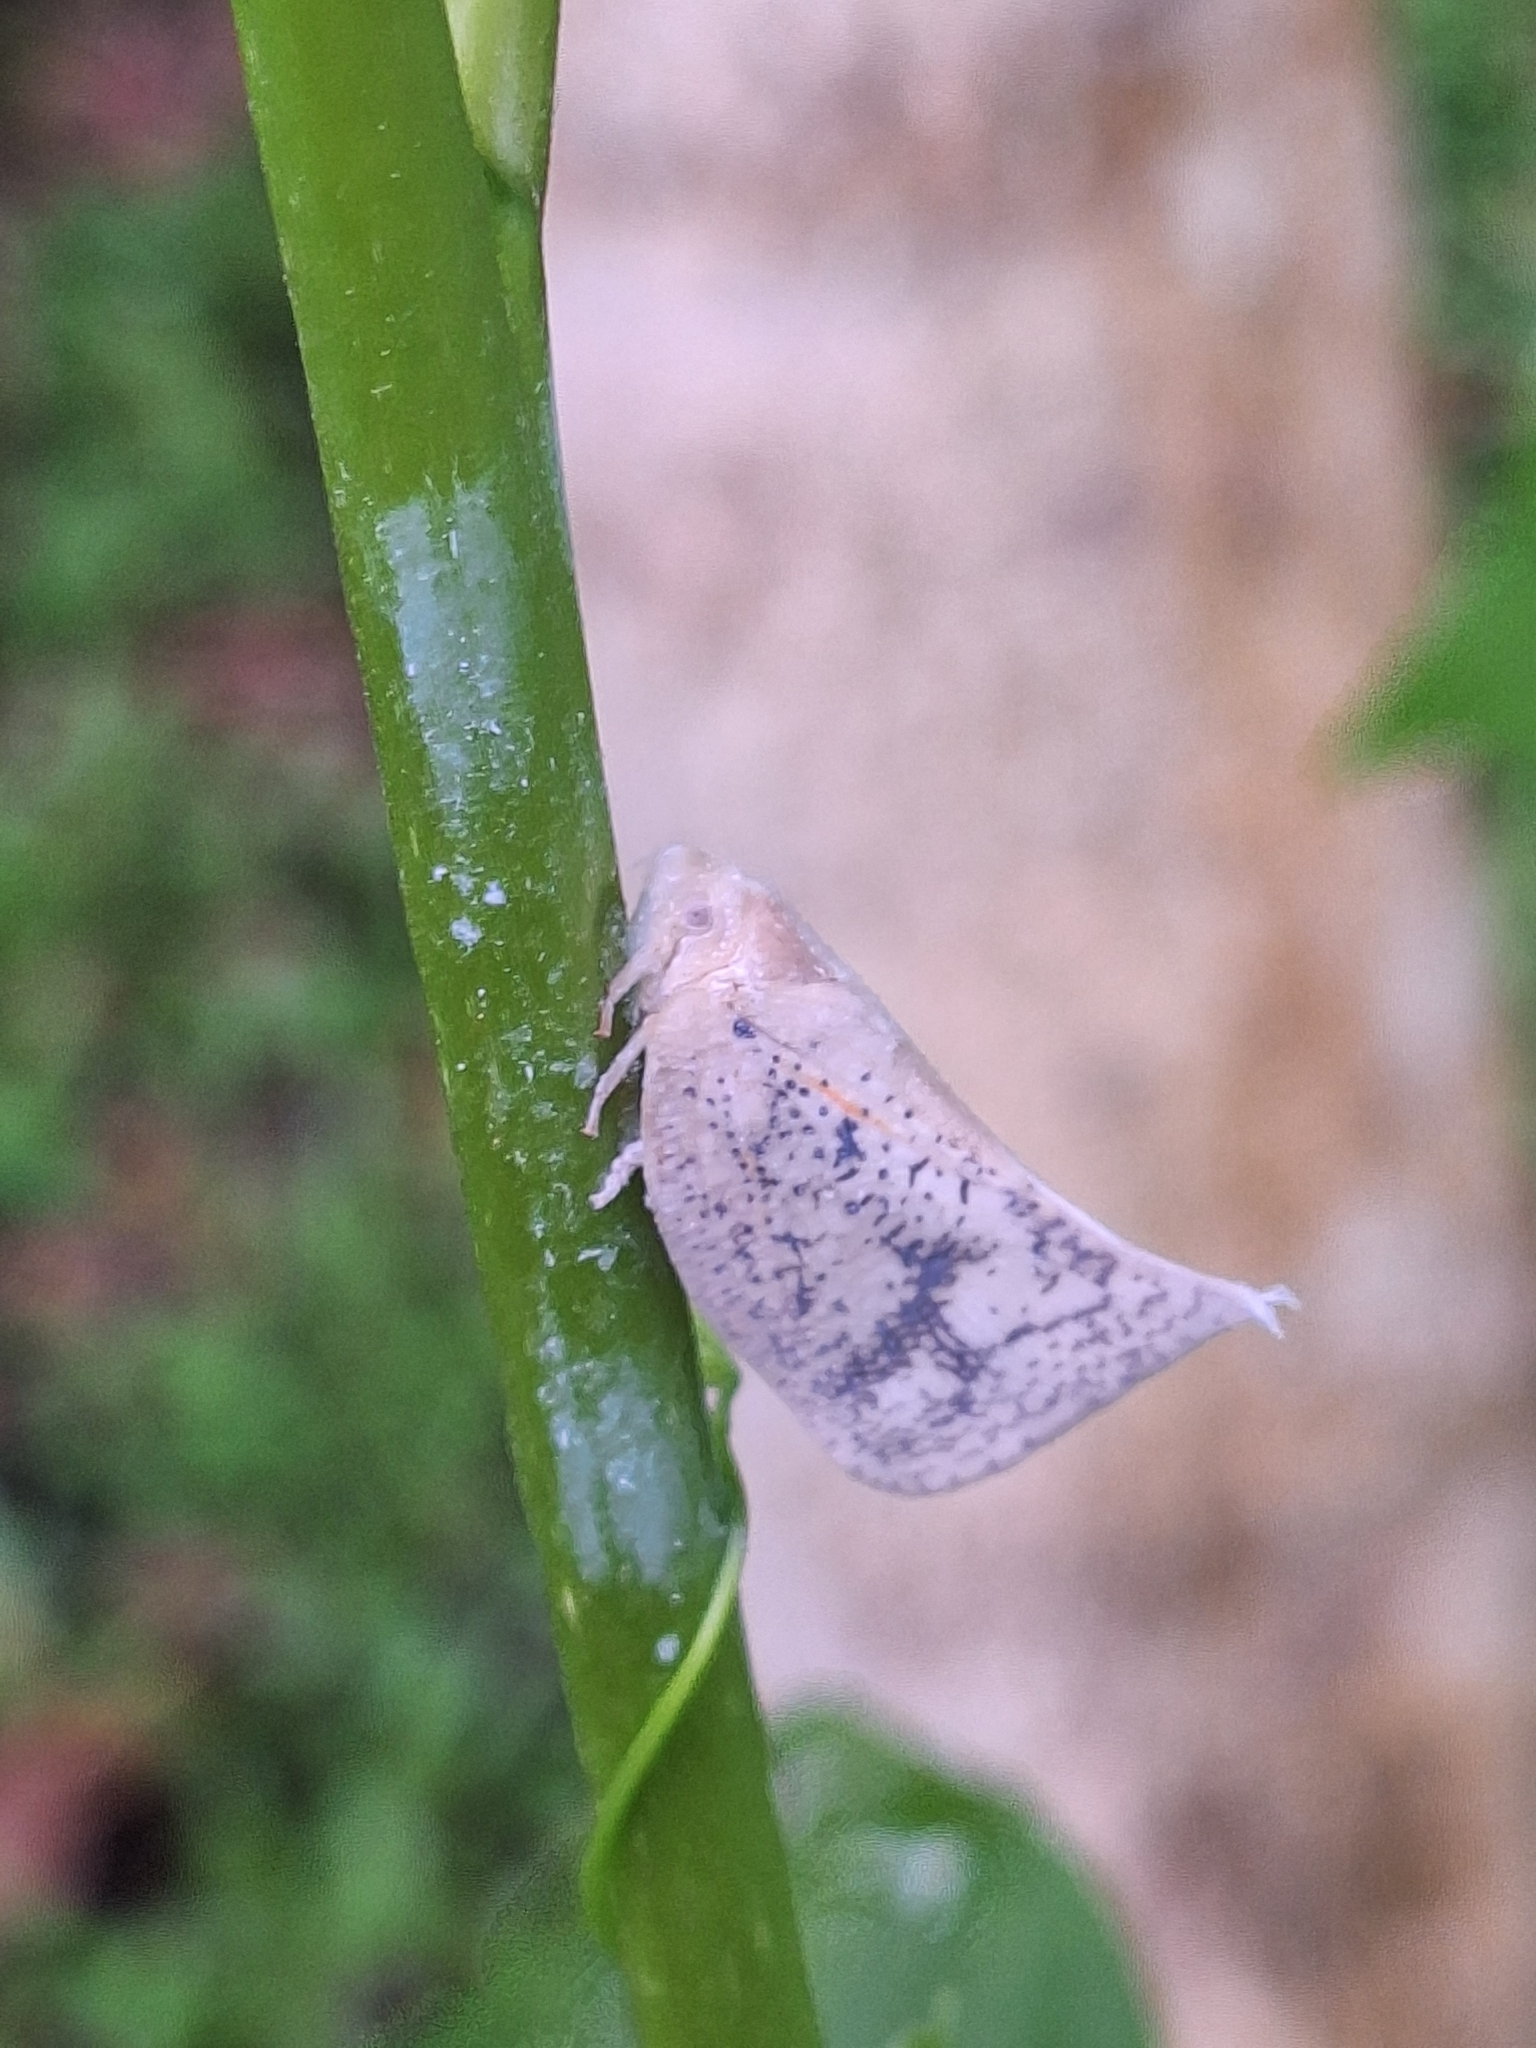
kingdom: Animalia
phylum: Arthropoda
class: Insecta
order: Hemiptera
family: Flatidae
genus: Lawana
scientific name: Lawana conspersa
